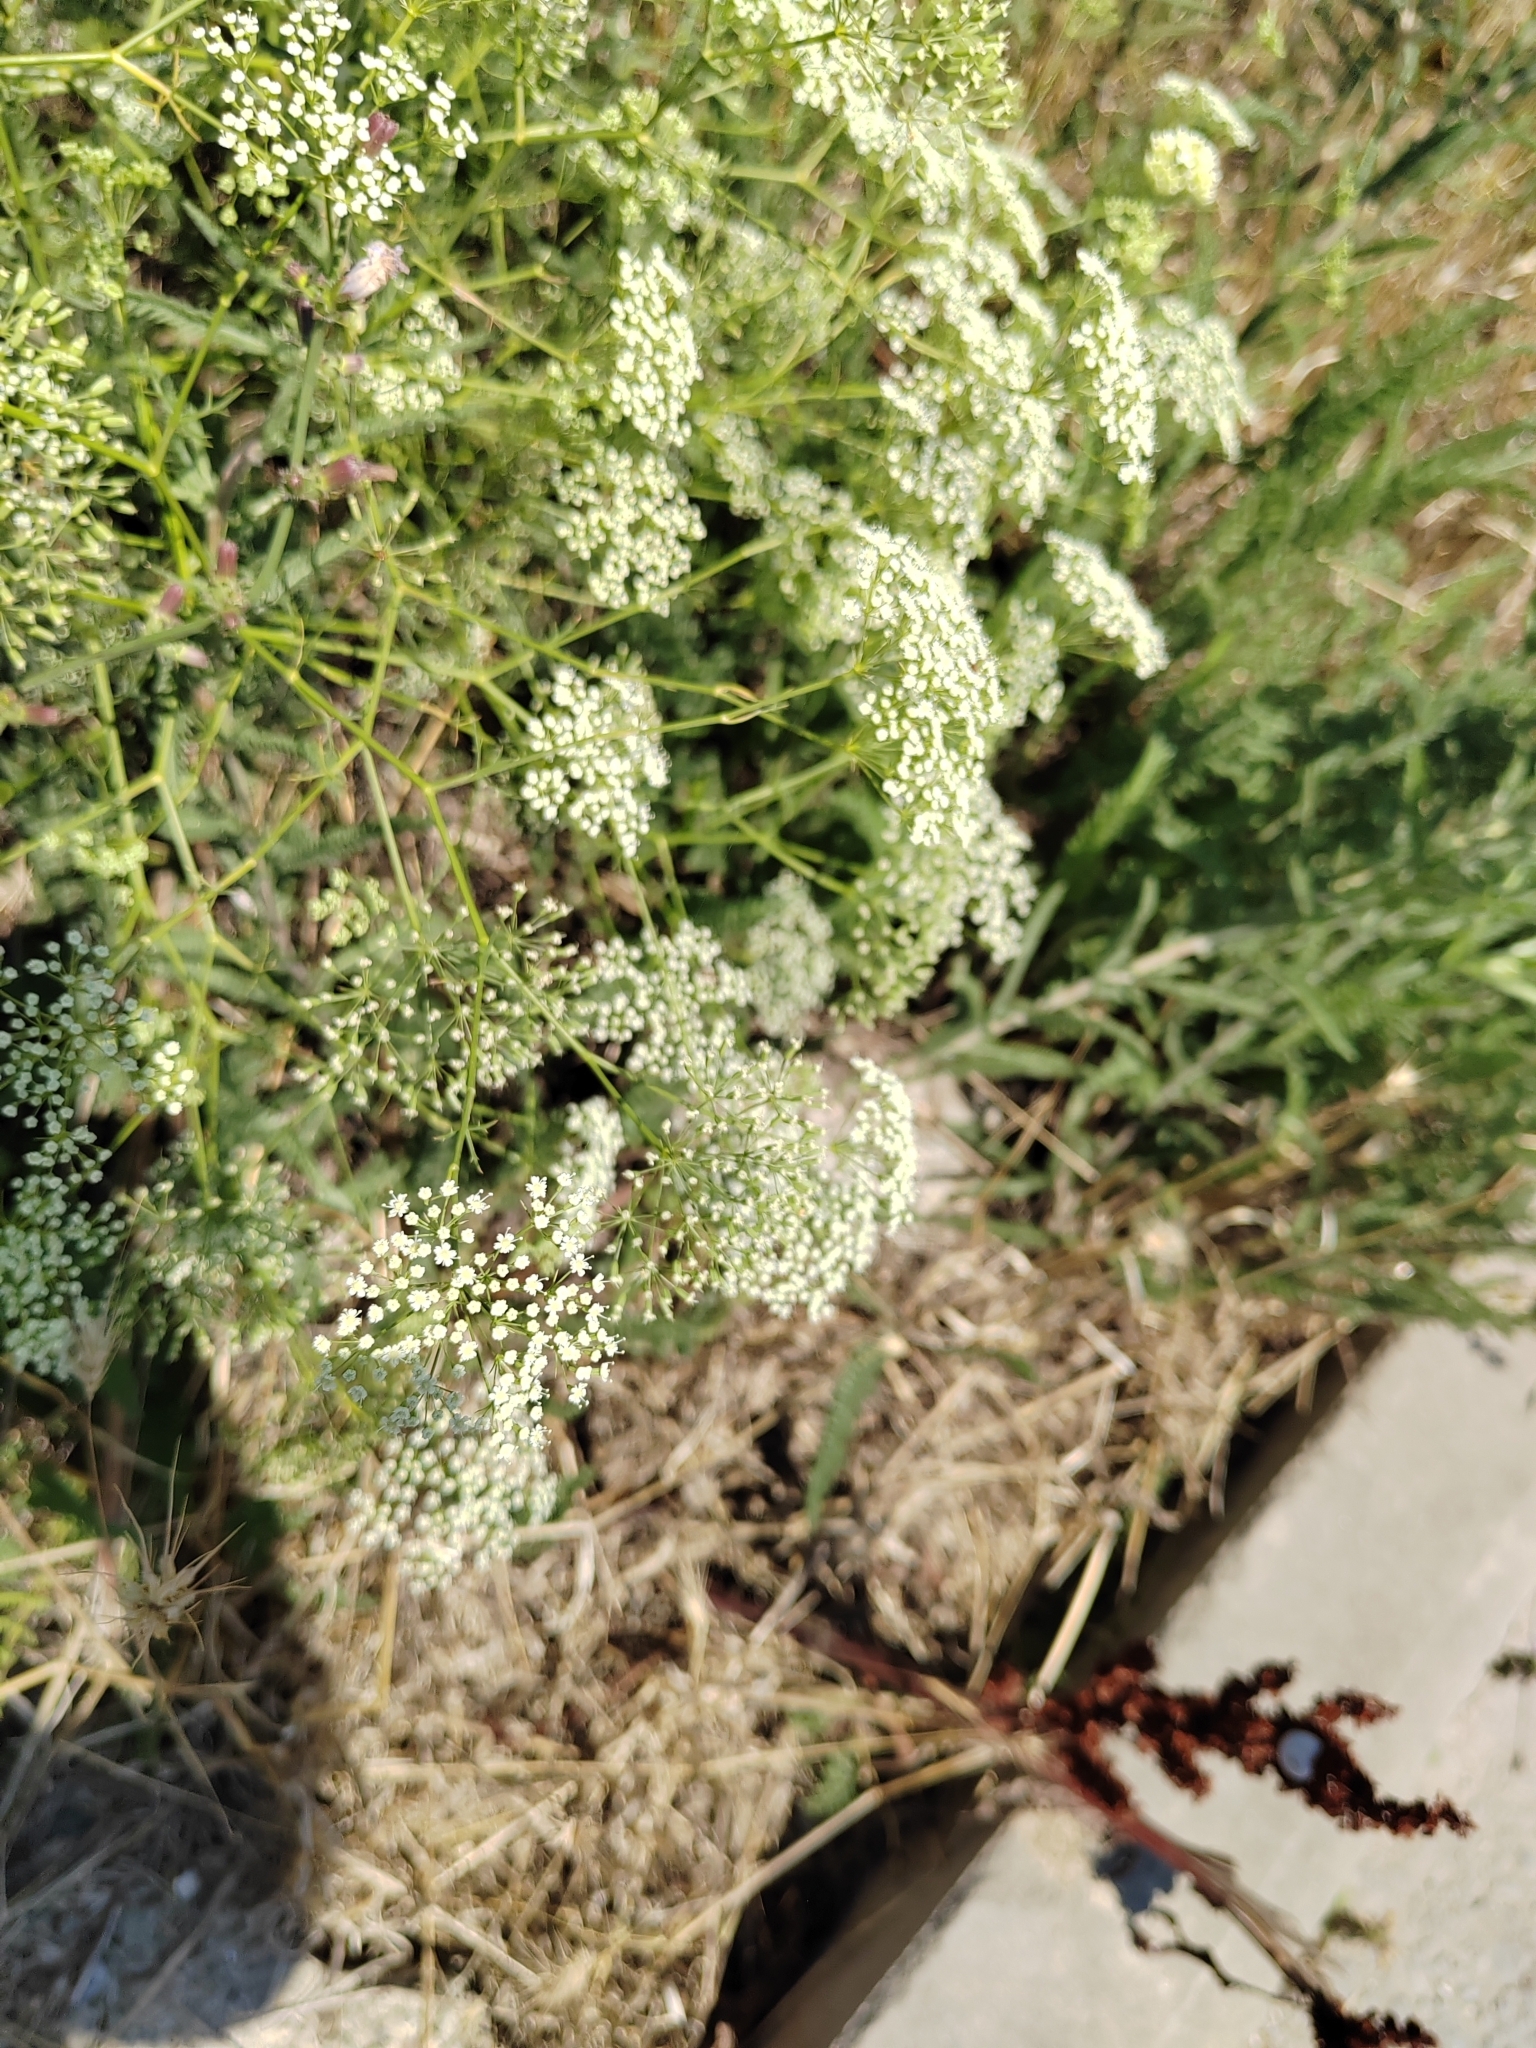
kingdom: Plantae
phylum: Tracheophyta
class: Magnoliopsida
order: Apiales
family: Apiaceae
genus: Falcaria
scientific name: Falcaria vulgaris
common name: Longleaf
